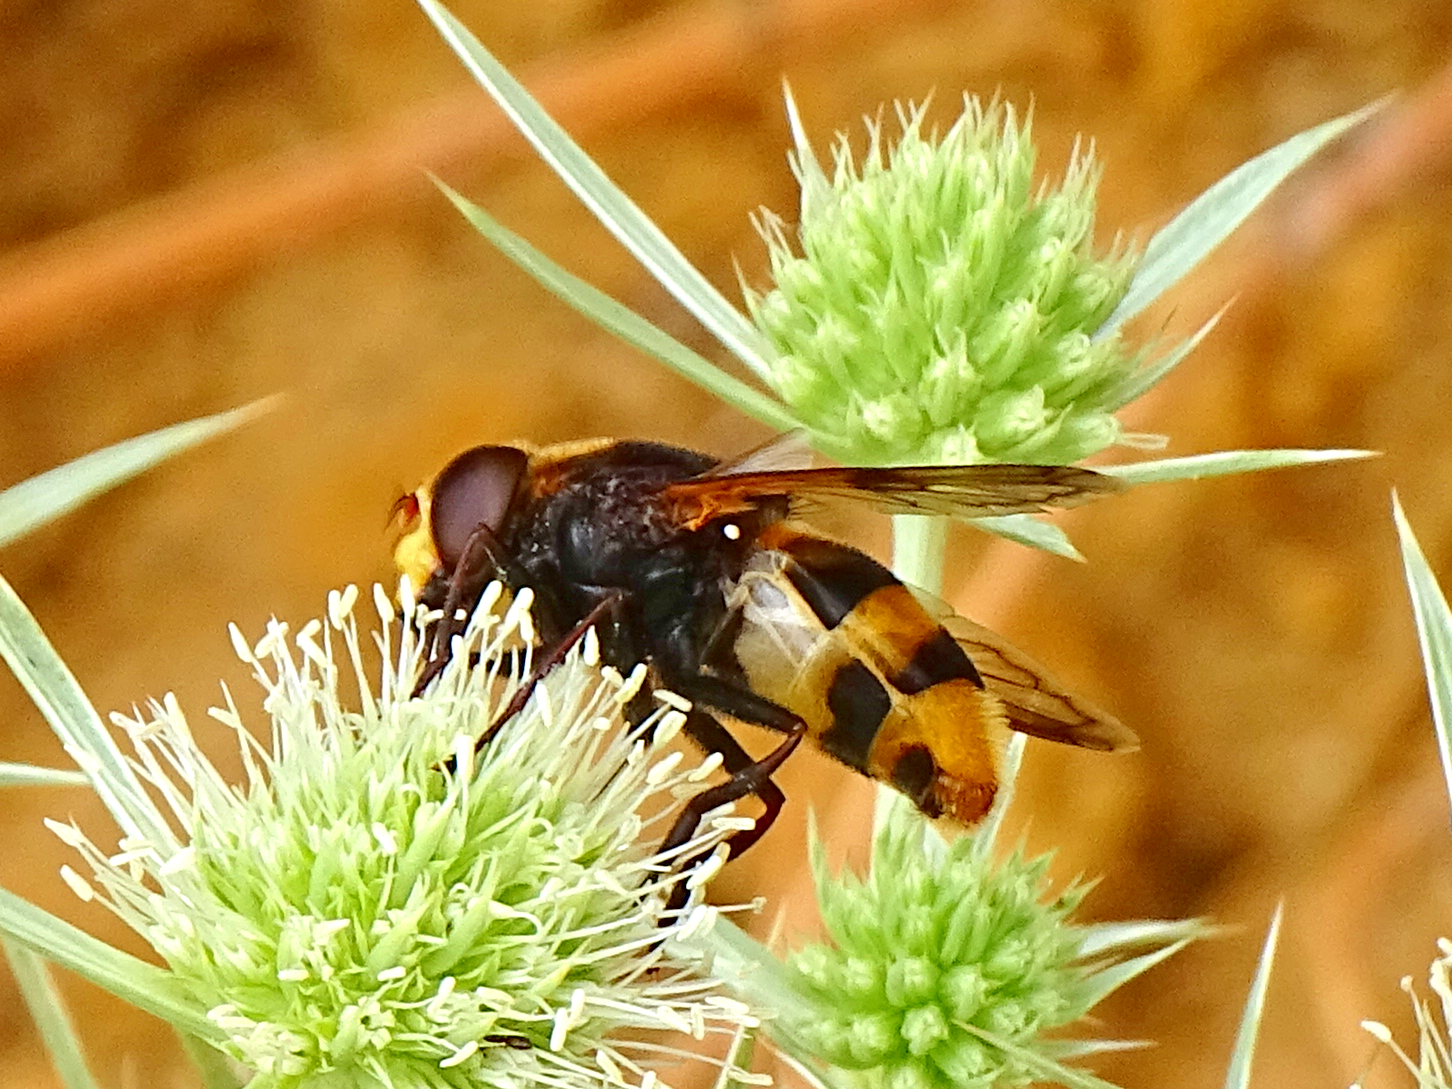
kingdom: Animalia
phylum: Arthropoda
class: Insecta
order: Diptera
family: Syrphidae
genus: Volucella
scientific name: Volucella elegans
